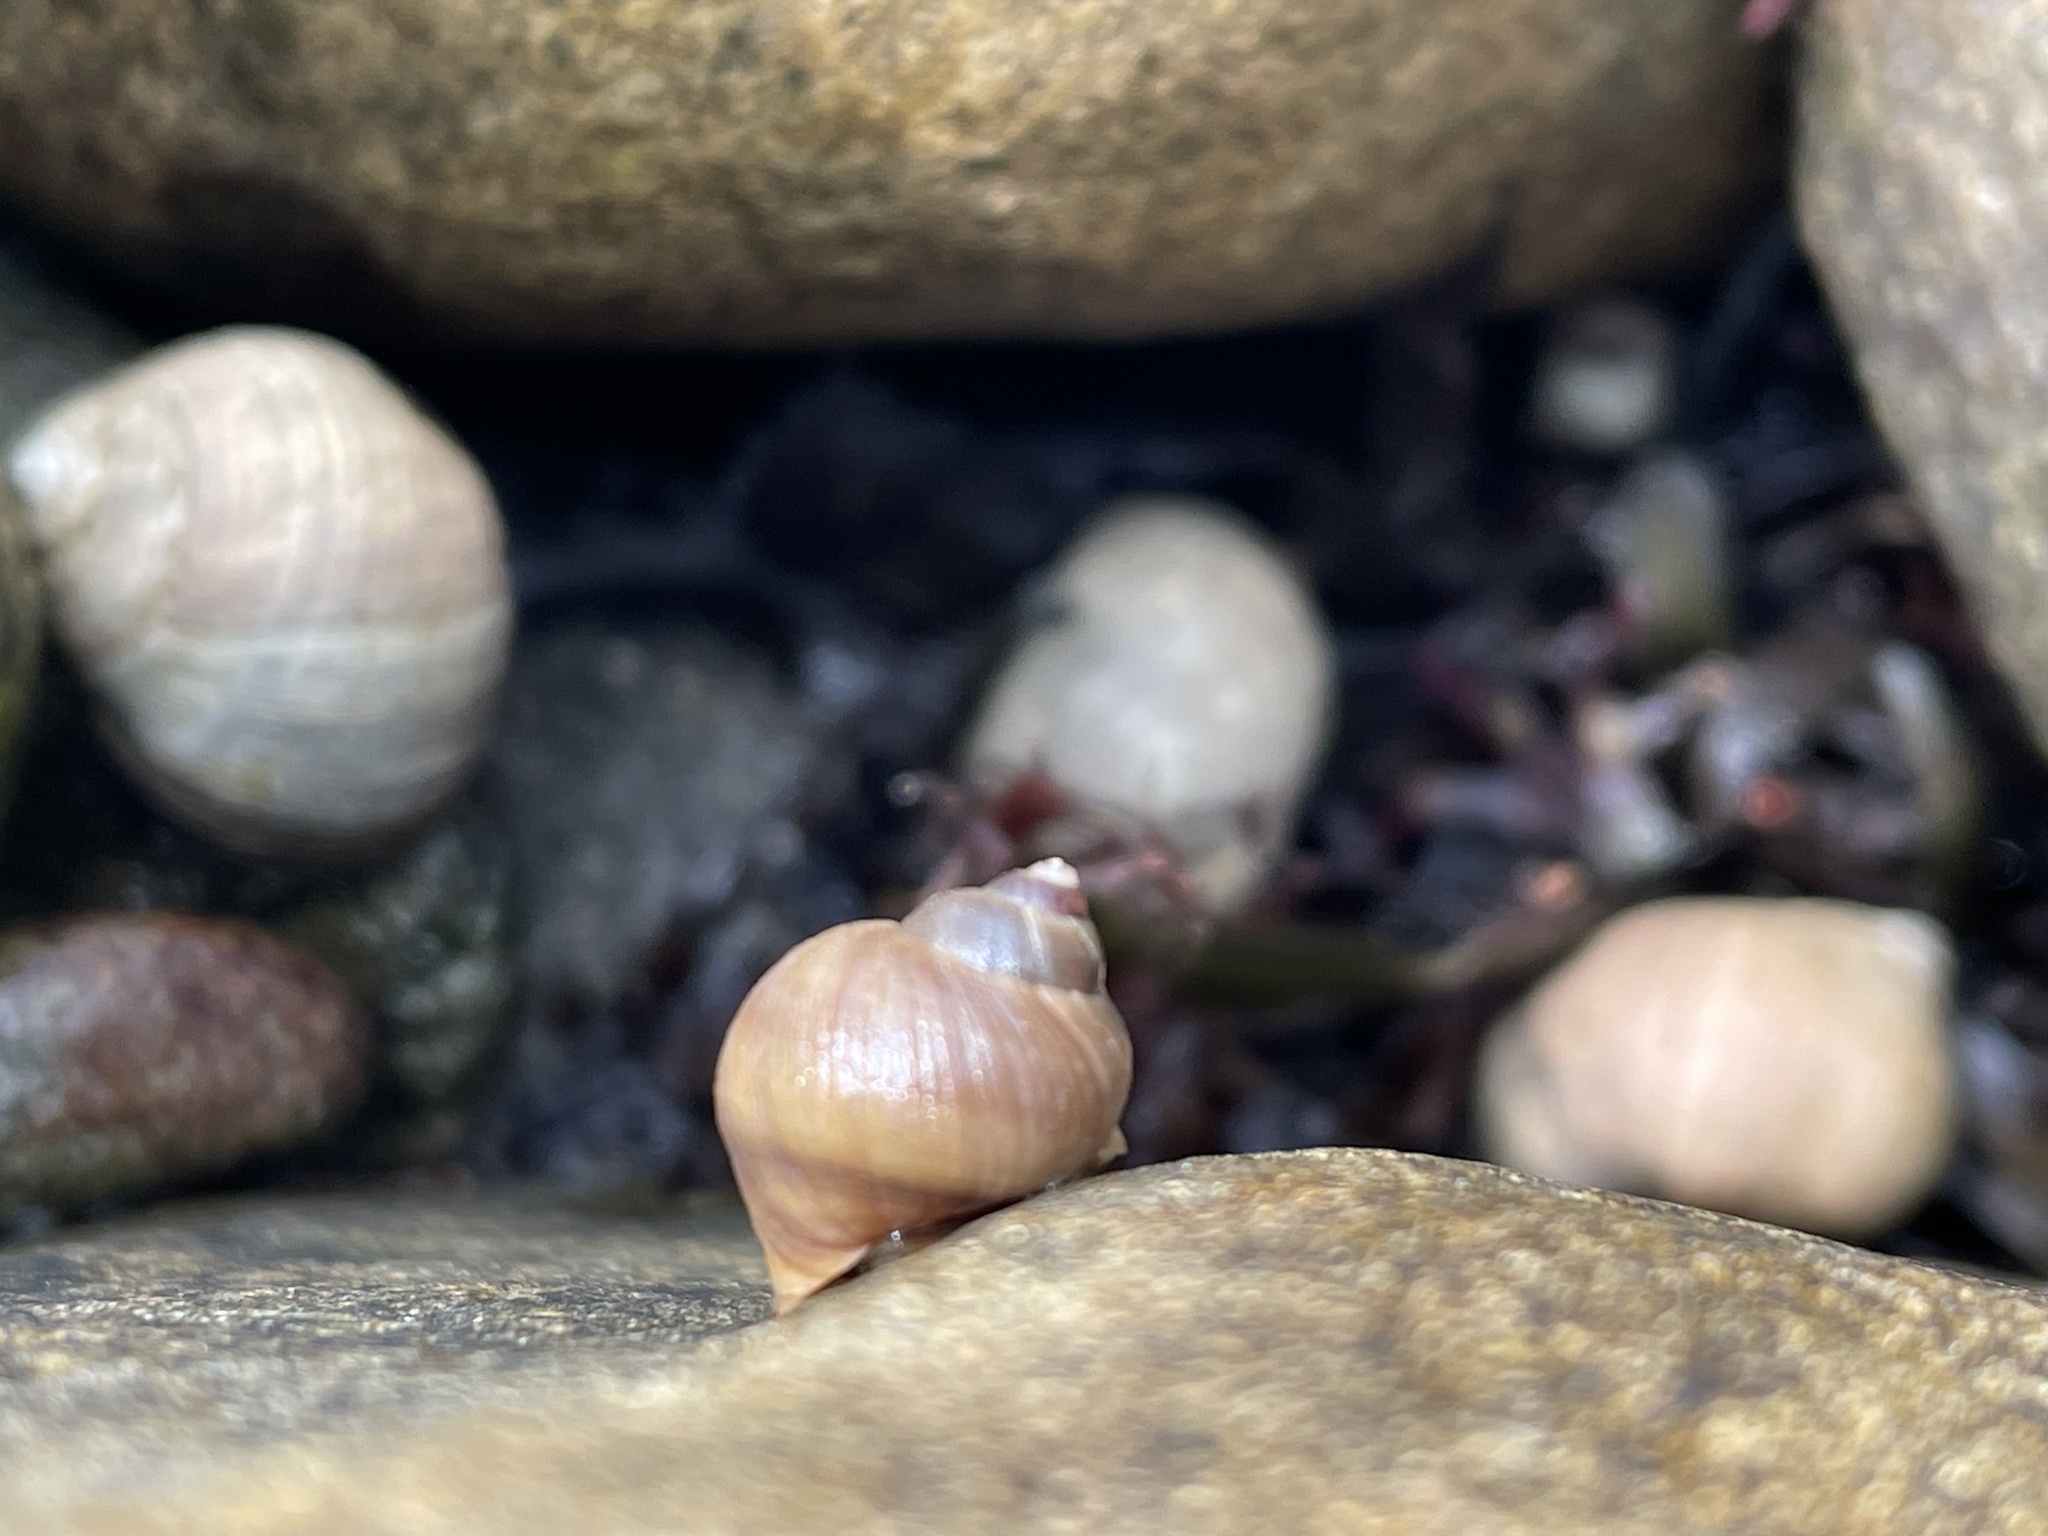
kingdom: Animalia
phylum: Mollusca
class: Gastropoda
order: Littorinimorpha
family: Littorinidae
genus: Littorina
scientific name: Littorina saxatilis
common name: Black-lined periwinkle
